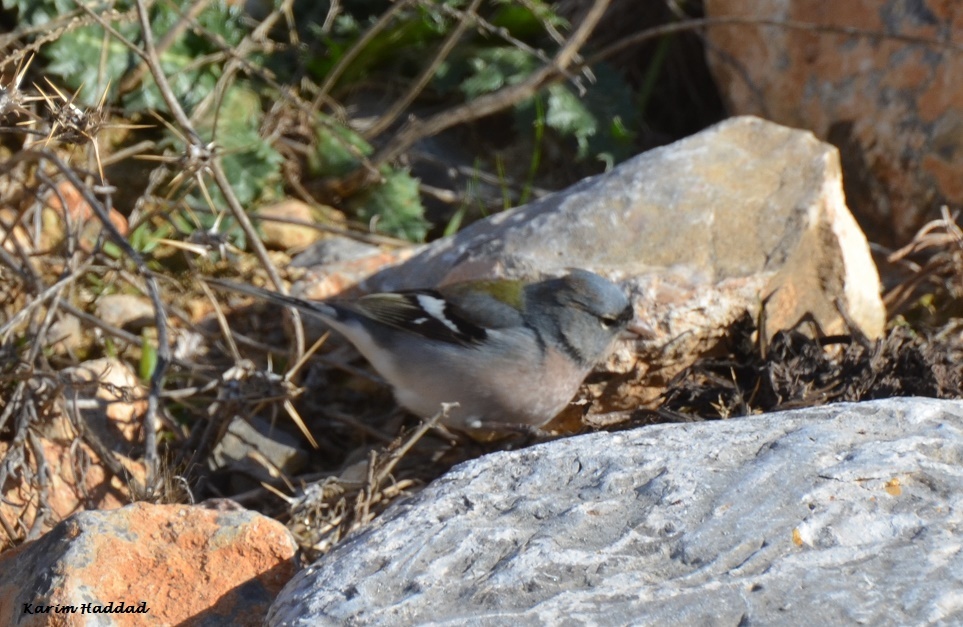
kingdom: Animalia
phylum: Chordata
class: Aves
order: Passeriformes
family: Fringillidae
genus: Fringilla
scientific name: Fringilla spodiogenys
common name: African chaffinch
